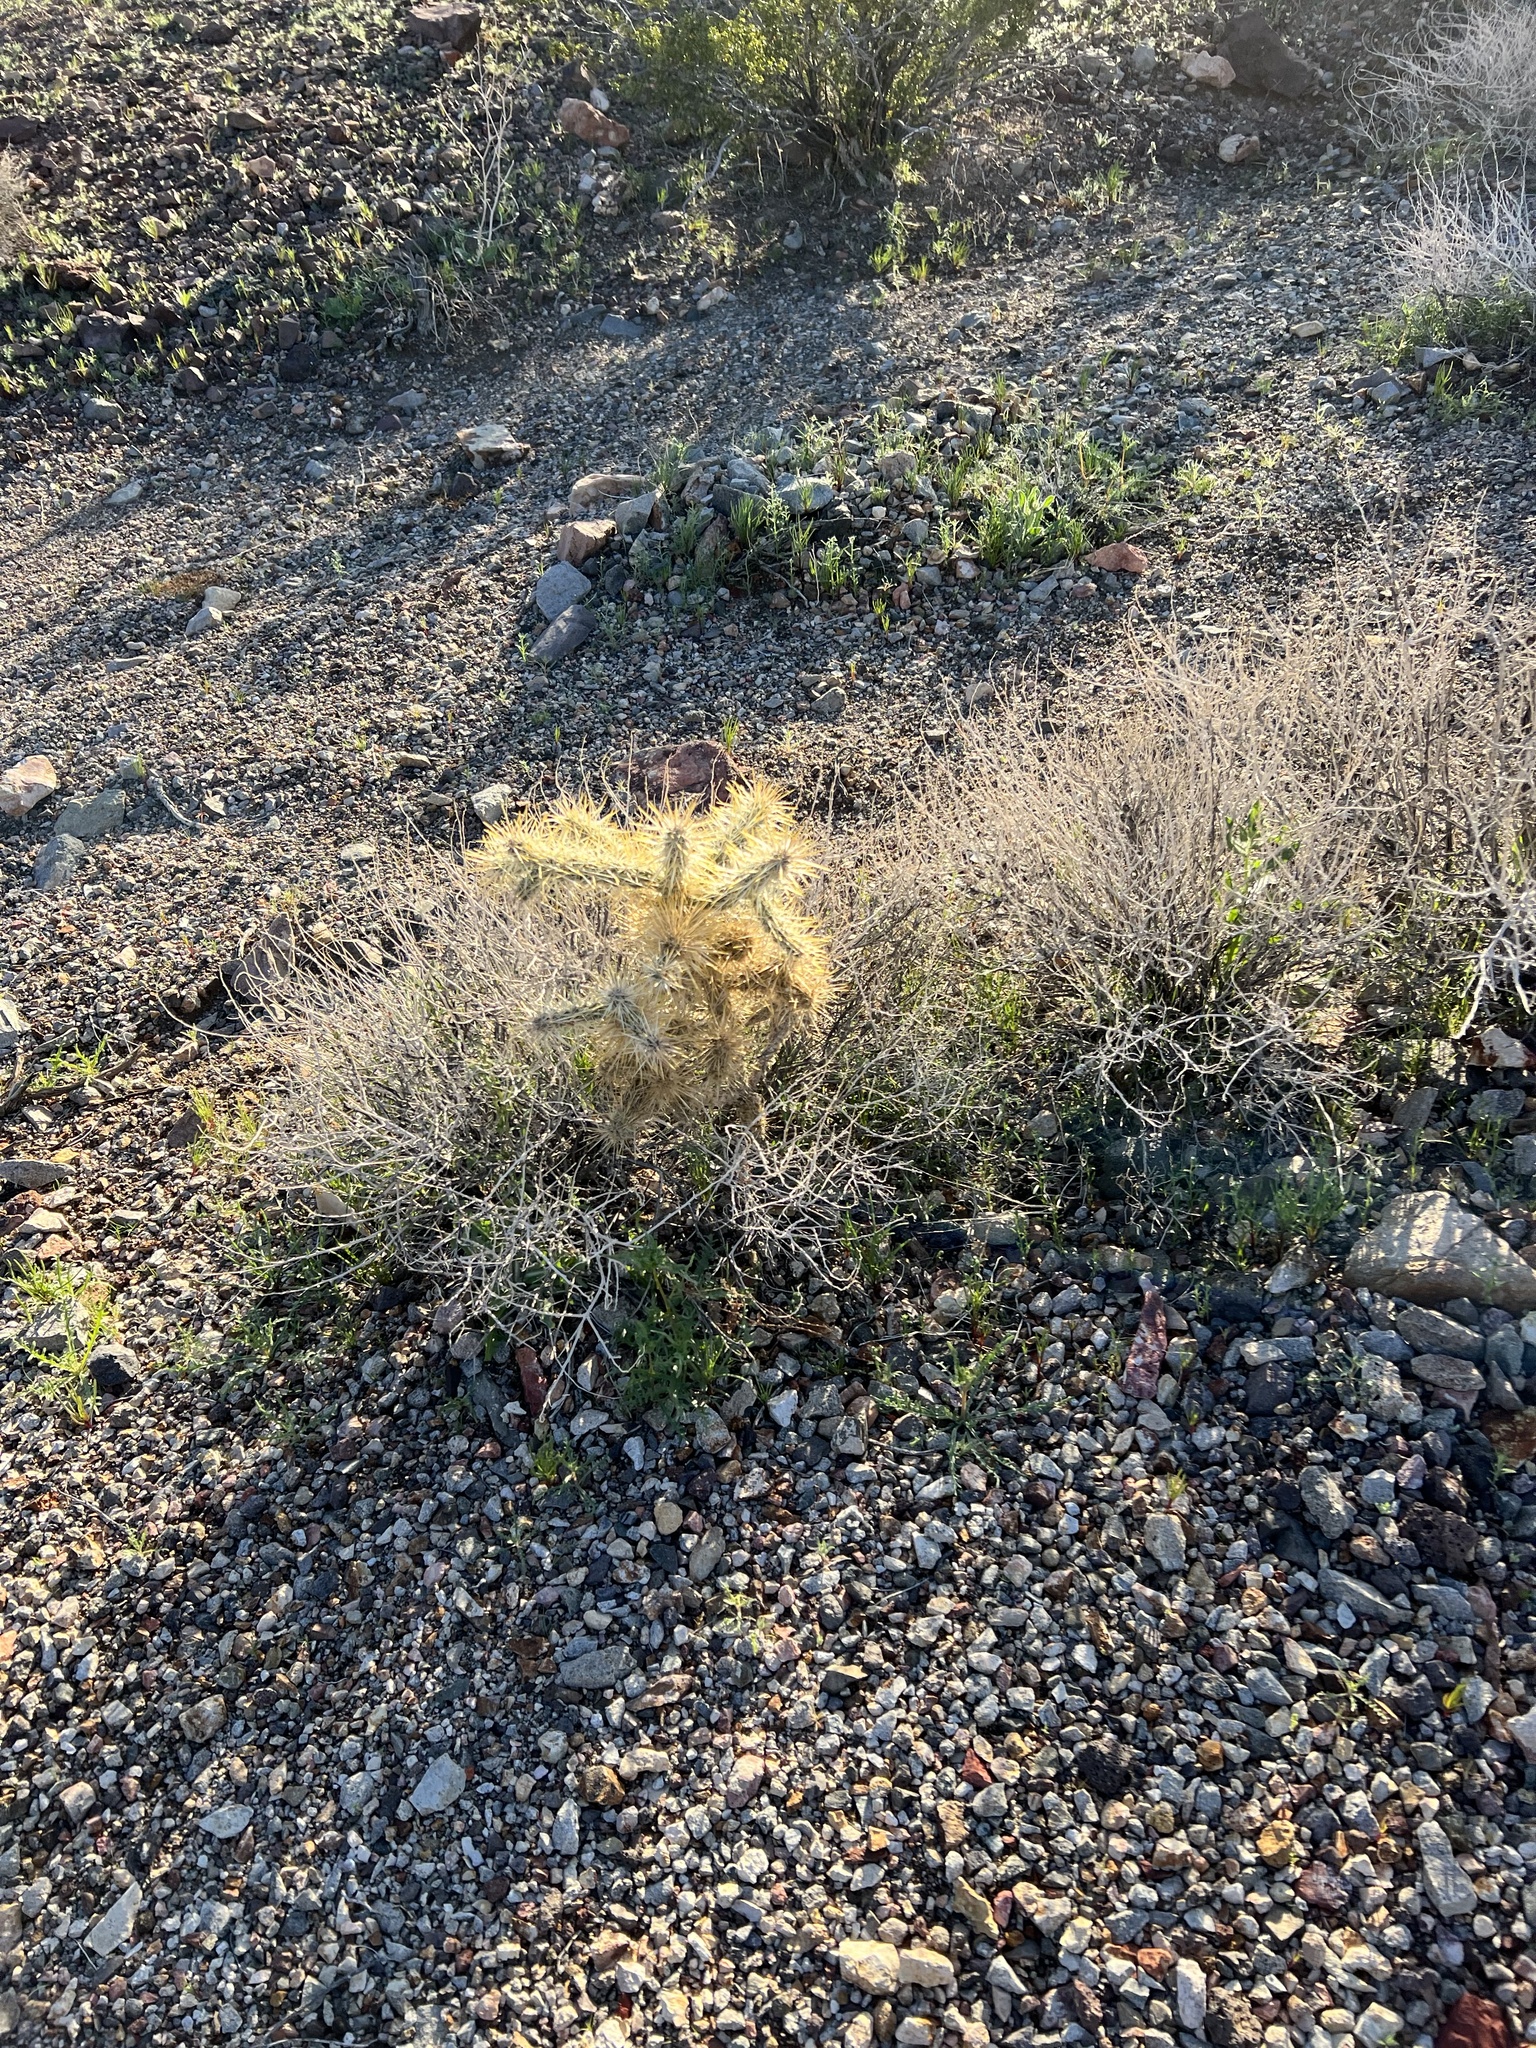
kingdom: Plantae
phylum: Tracheophyta
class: Magnoliopsida
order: Caryophyllales
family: Cactaceae
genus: Cylindropuntia
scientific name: Cylindropuntia echinocarpa
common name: Ground cholla
